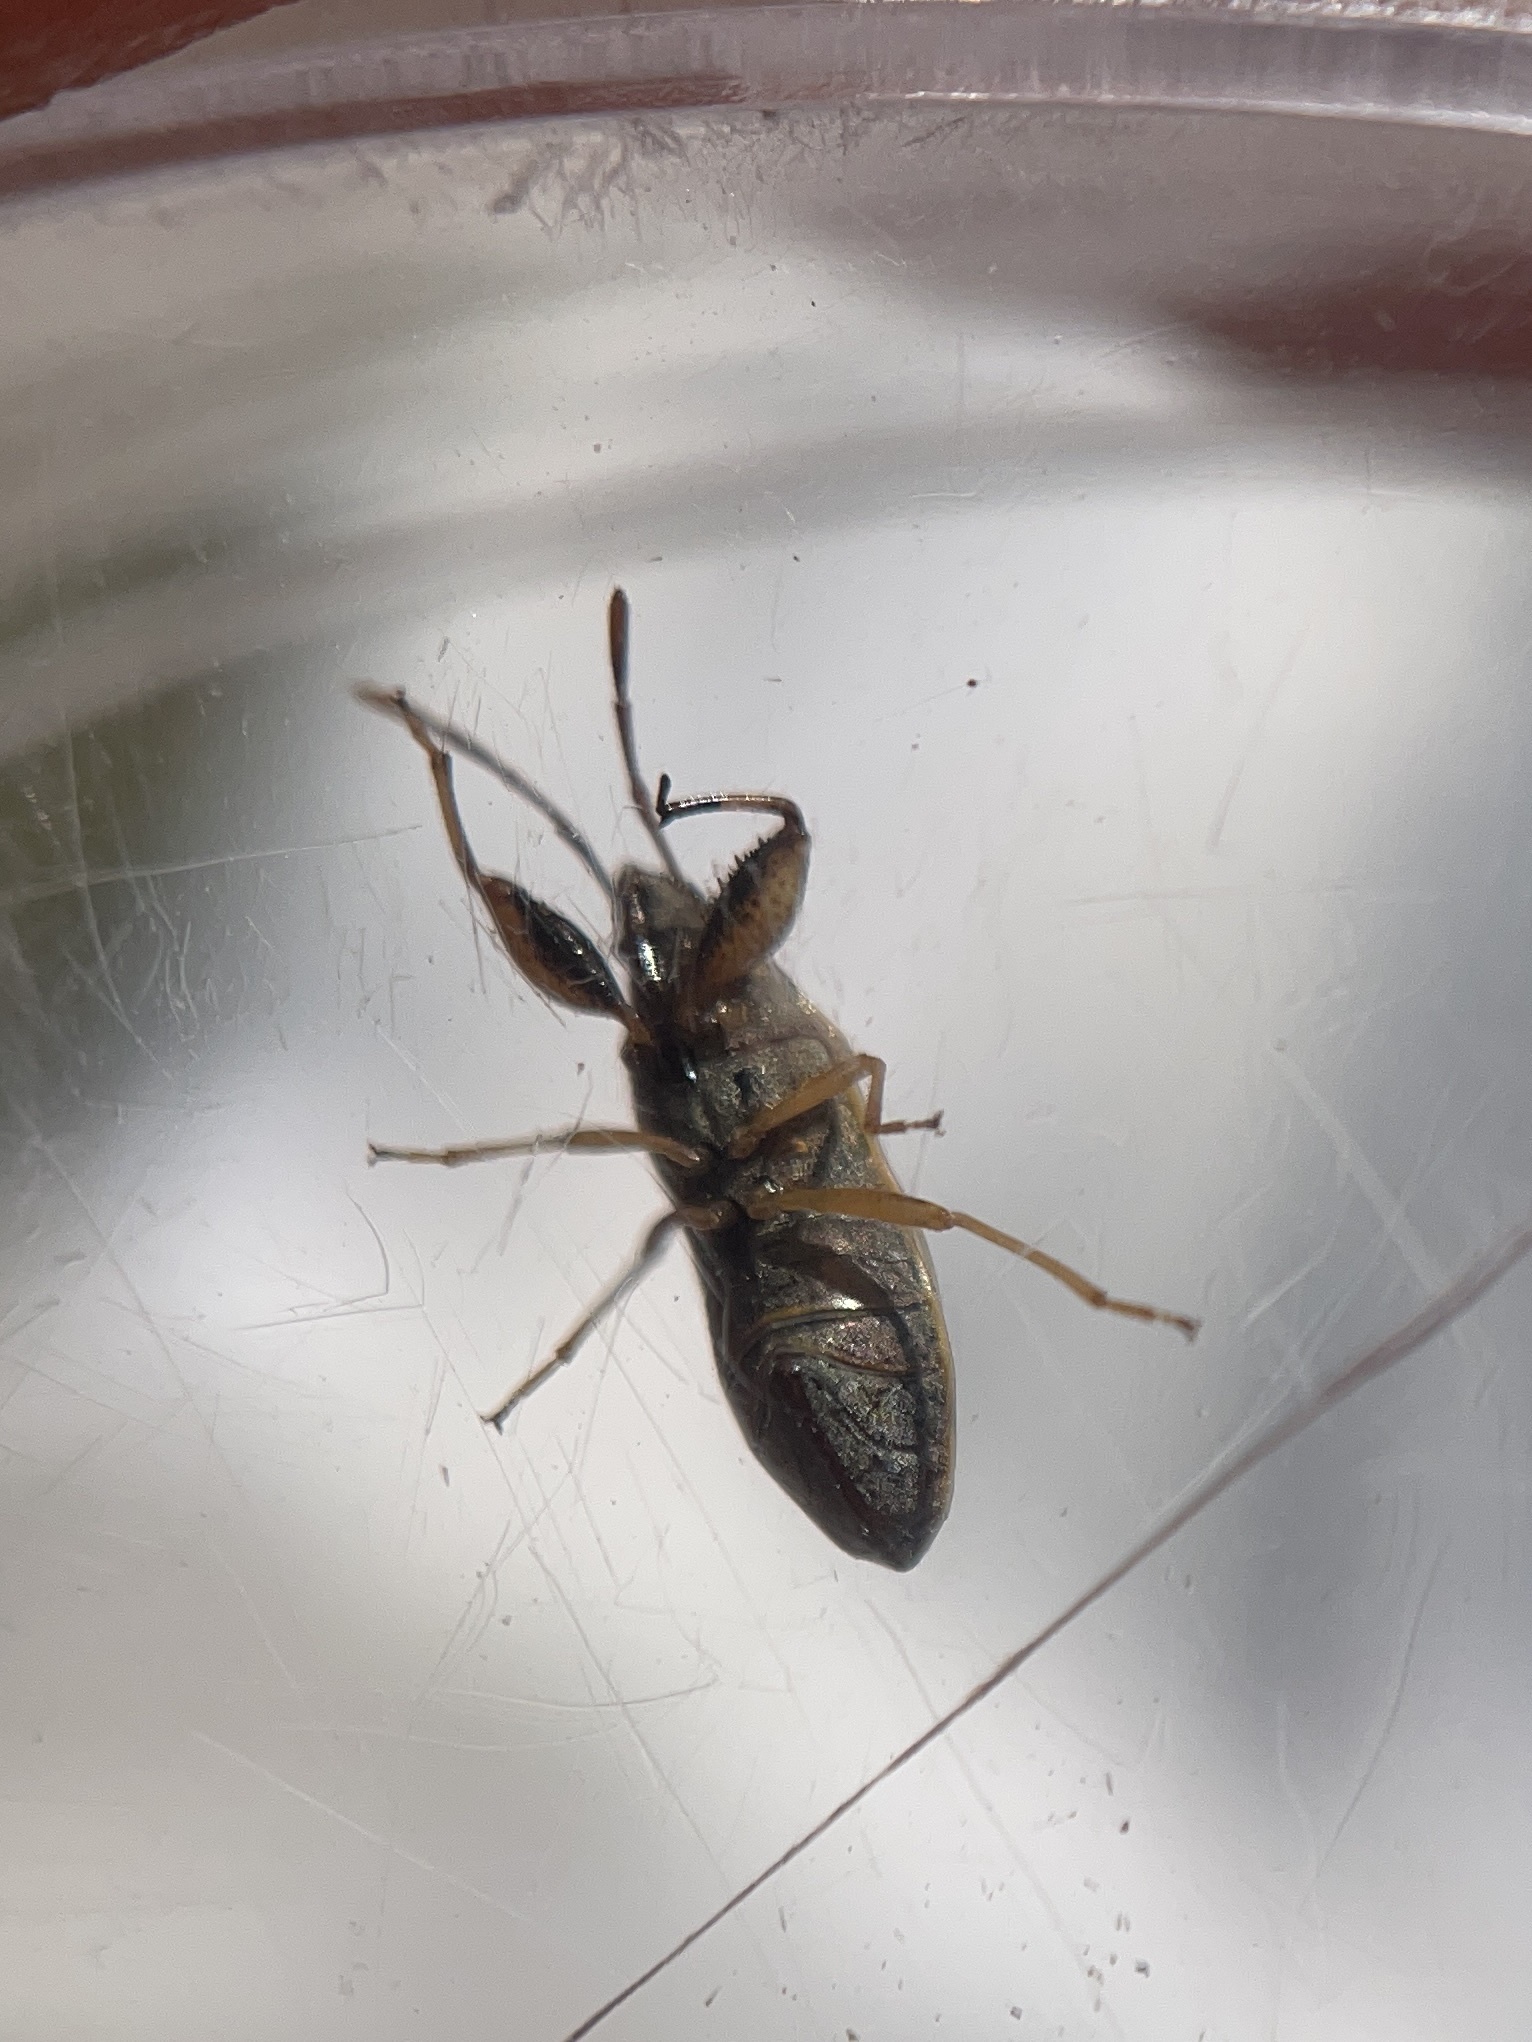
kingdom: Animalia
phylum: Arthropoda
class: Insecta
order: Hemiptera
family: Pachygronthidae
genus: Oedancala
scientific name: Oedancala dorsalis
